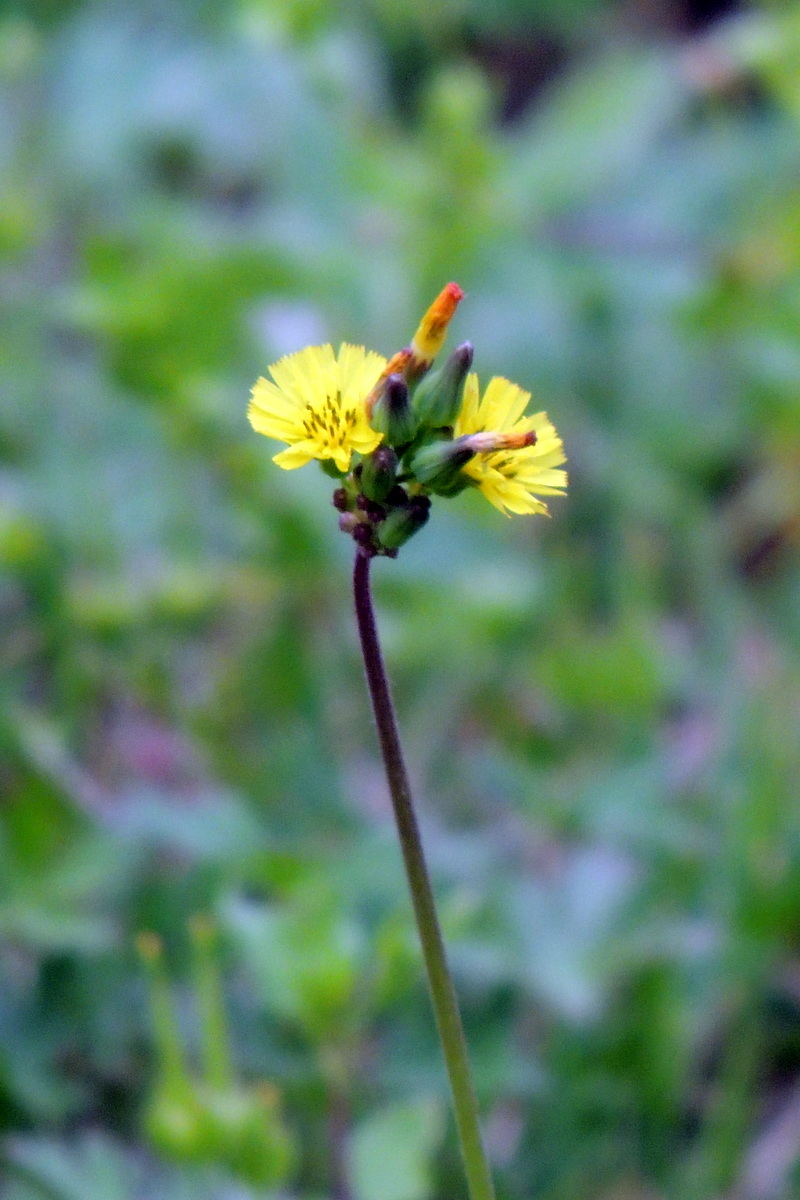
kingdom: Plantae
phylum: Tracheophyta
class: Magnoliopsida
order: Asterales
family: Asteraceae
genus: Youngia
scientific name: Youngia japonica
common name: Oriental false hawksbeard
